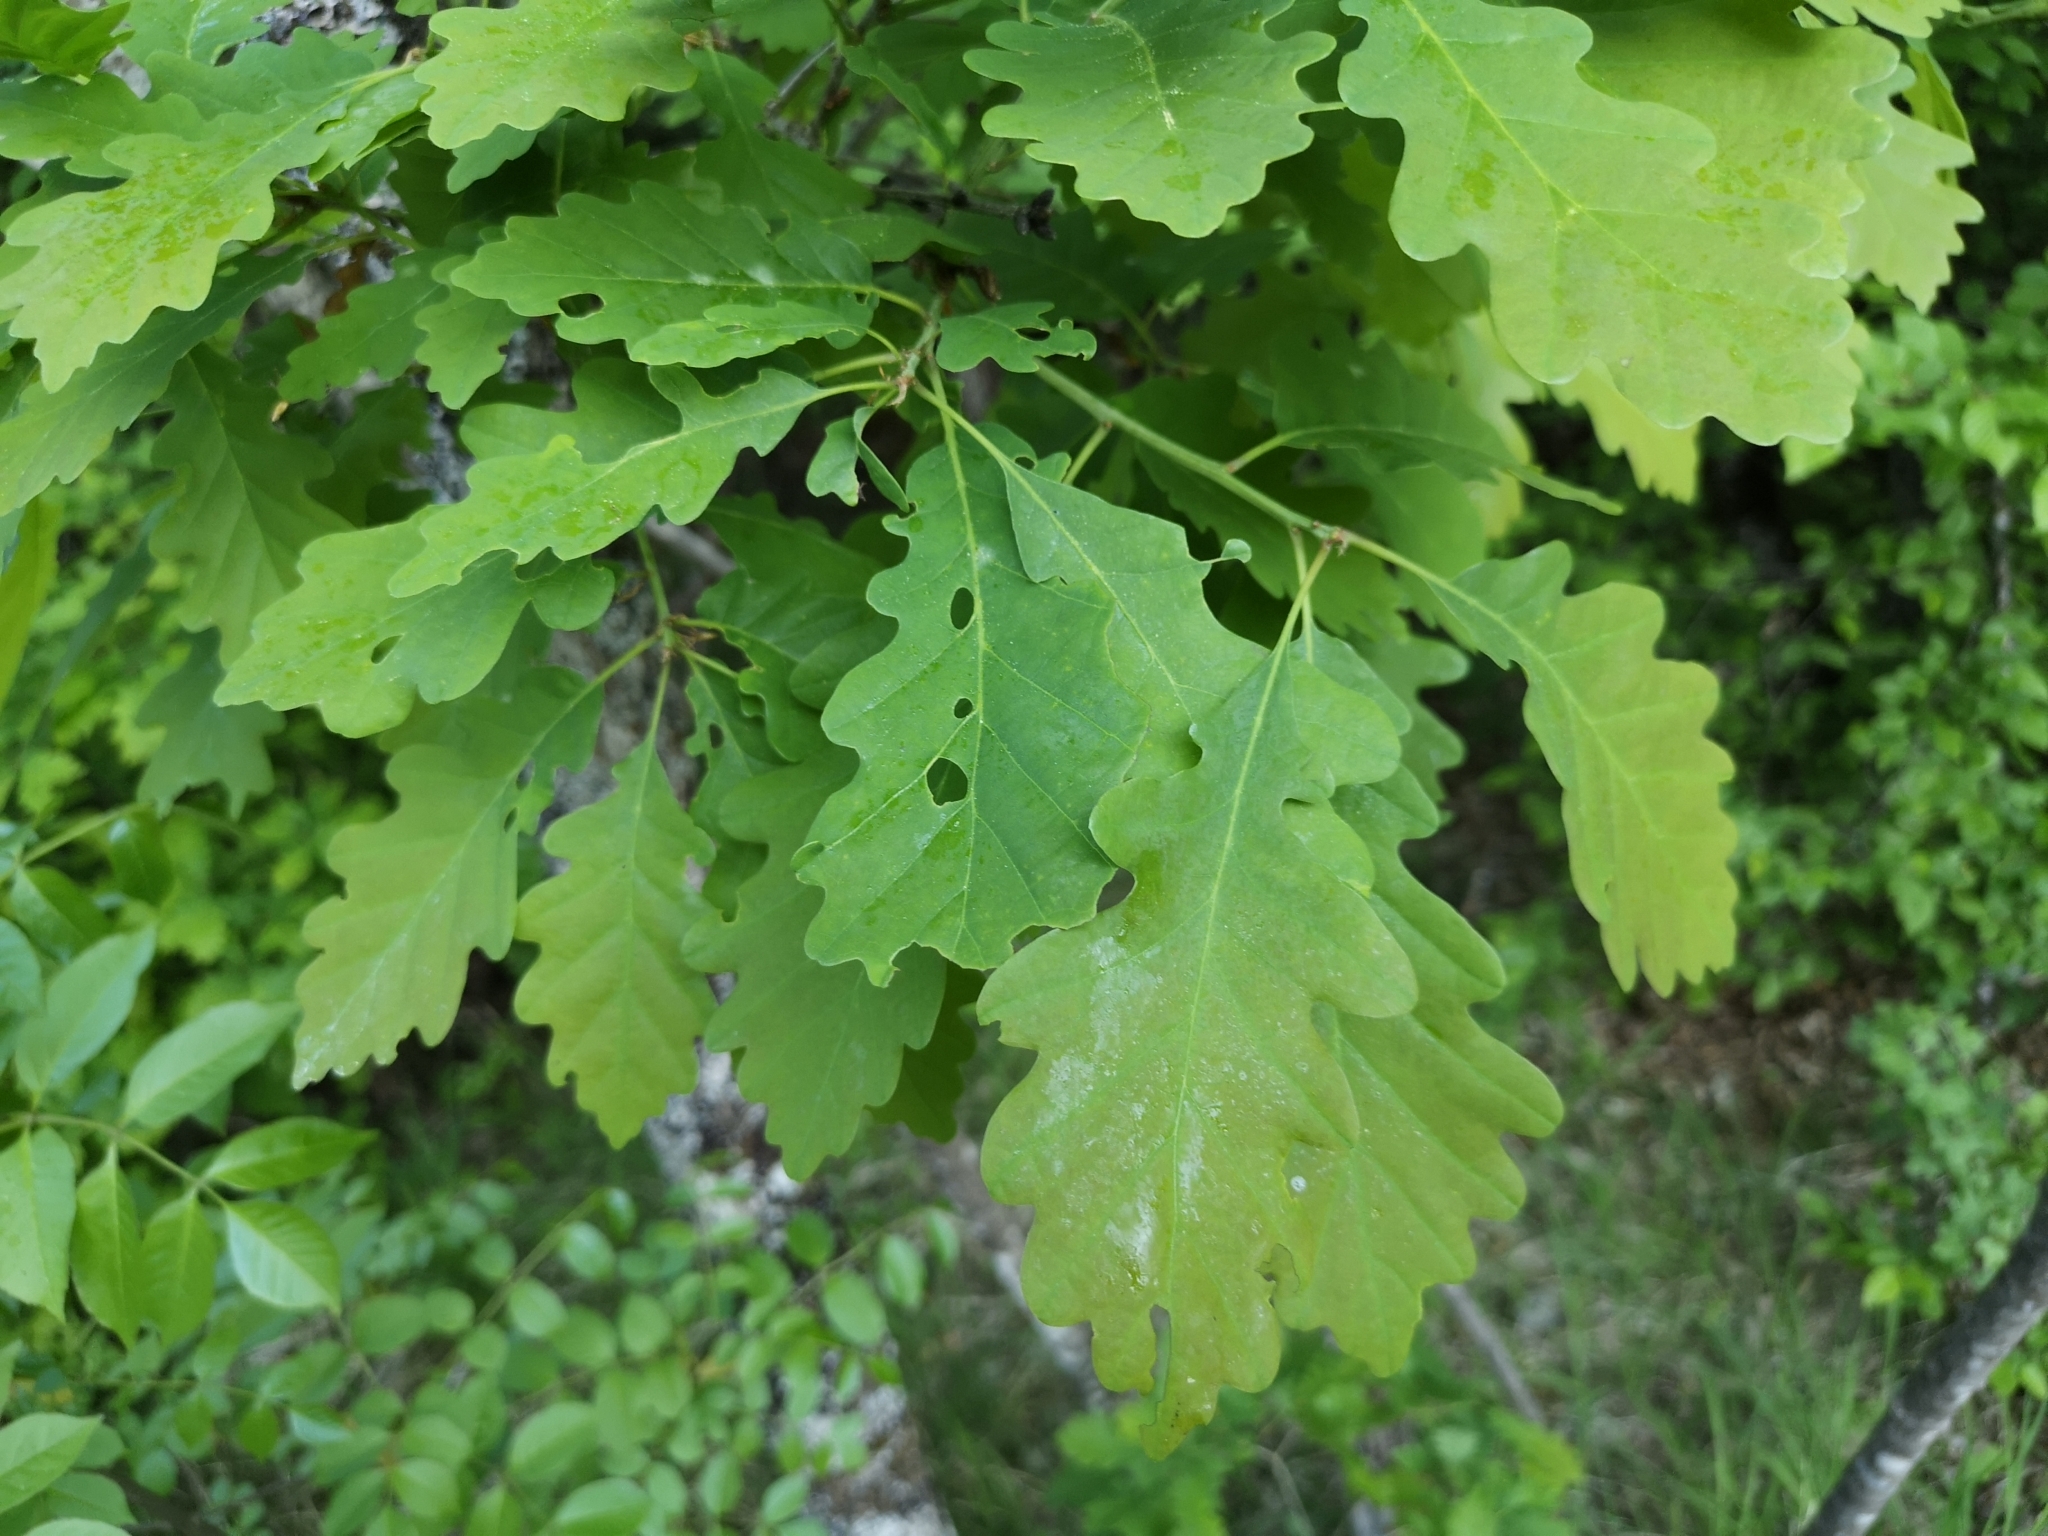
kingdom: Plantae
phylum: Tracheophyta
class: Magnoliopsida
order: Fagales
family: Fagaceae
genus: Quercus
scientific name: Quercus petraea
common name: Sessile oak
